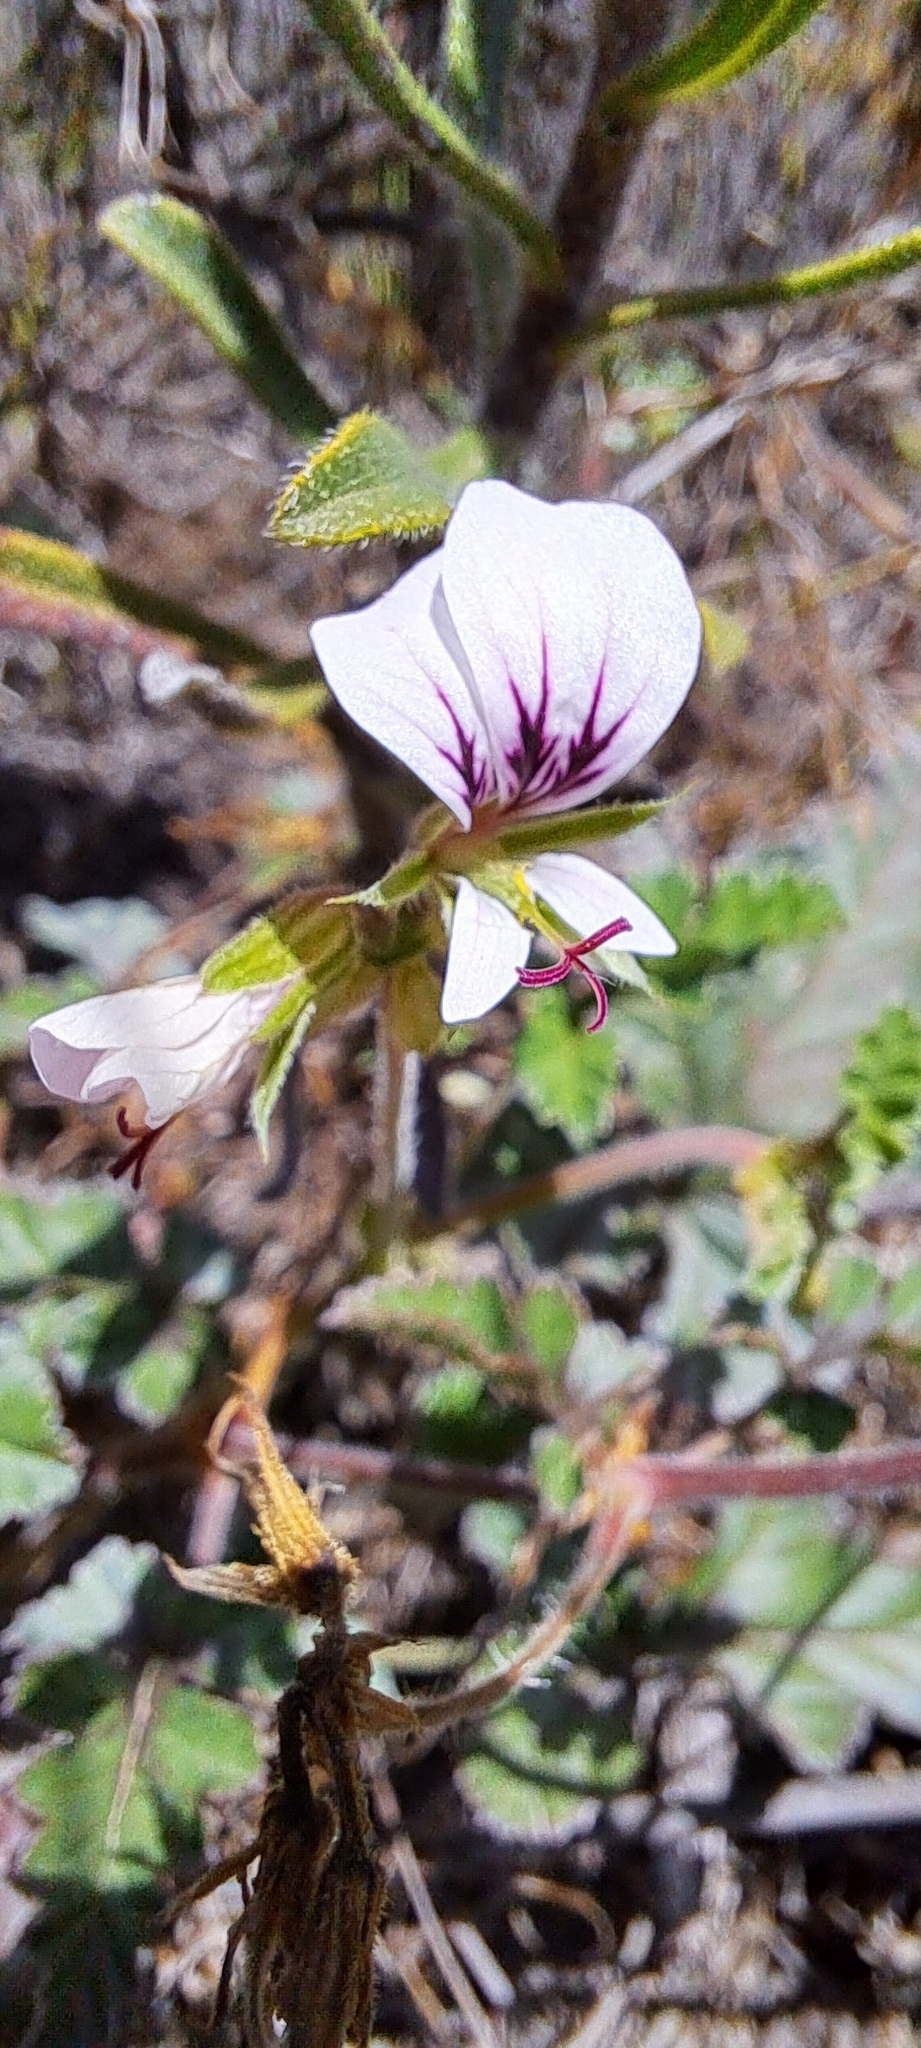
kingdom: Plantae
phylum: Tracheophyta
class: Magnoliopsida
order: Geraniales
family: Geraniaceae
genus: Pelargonium
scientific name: Pelargonium candicans
